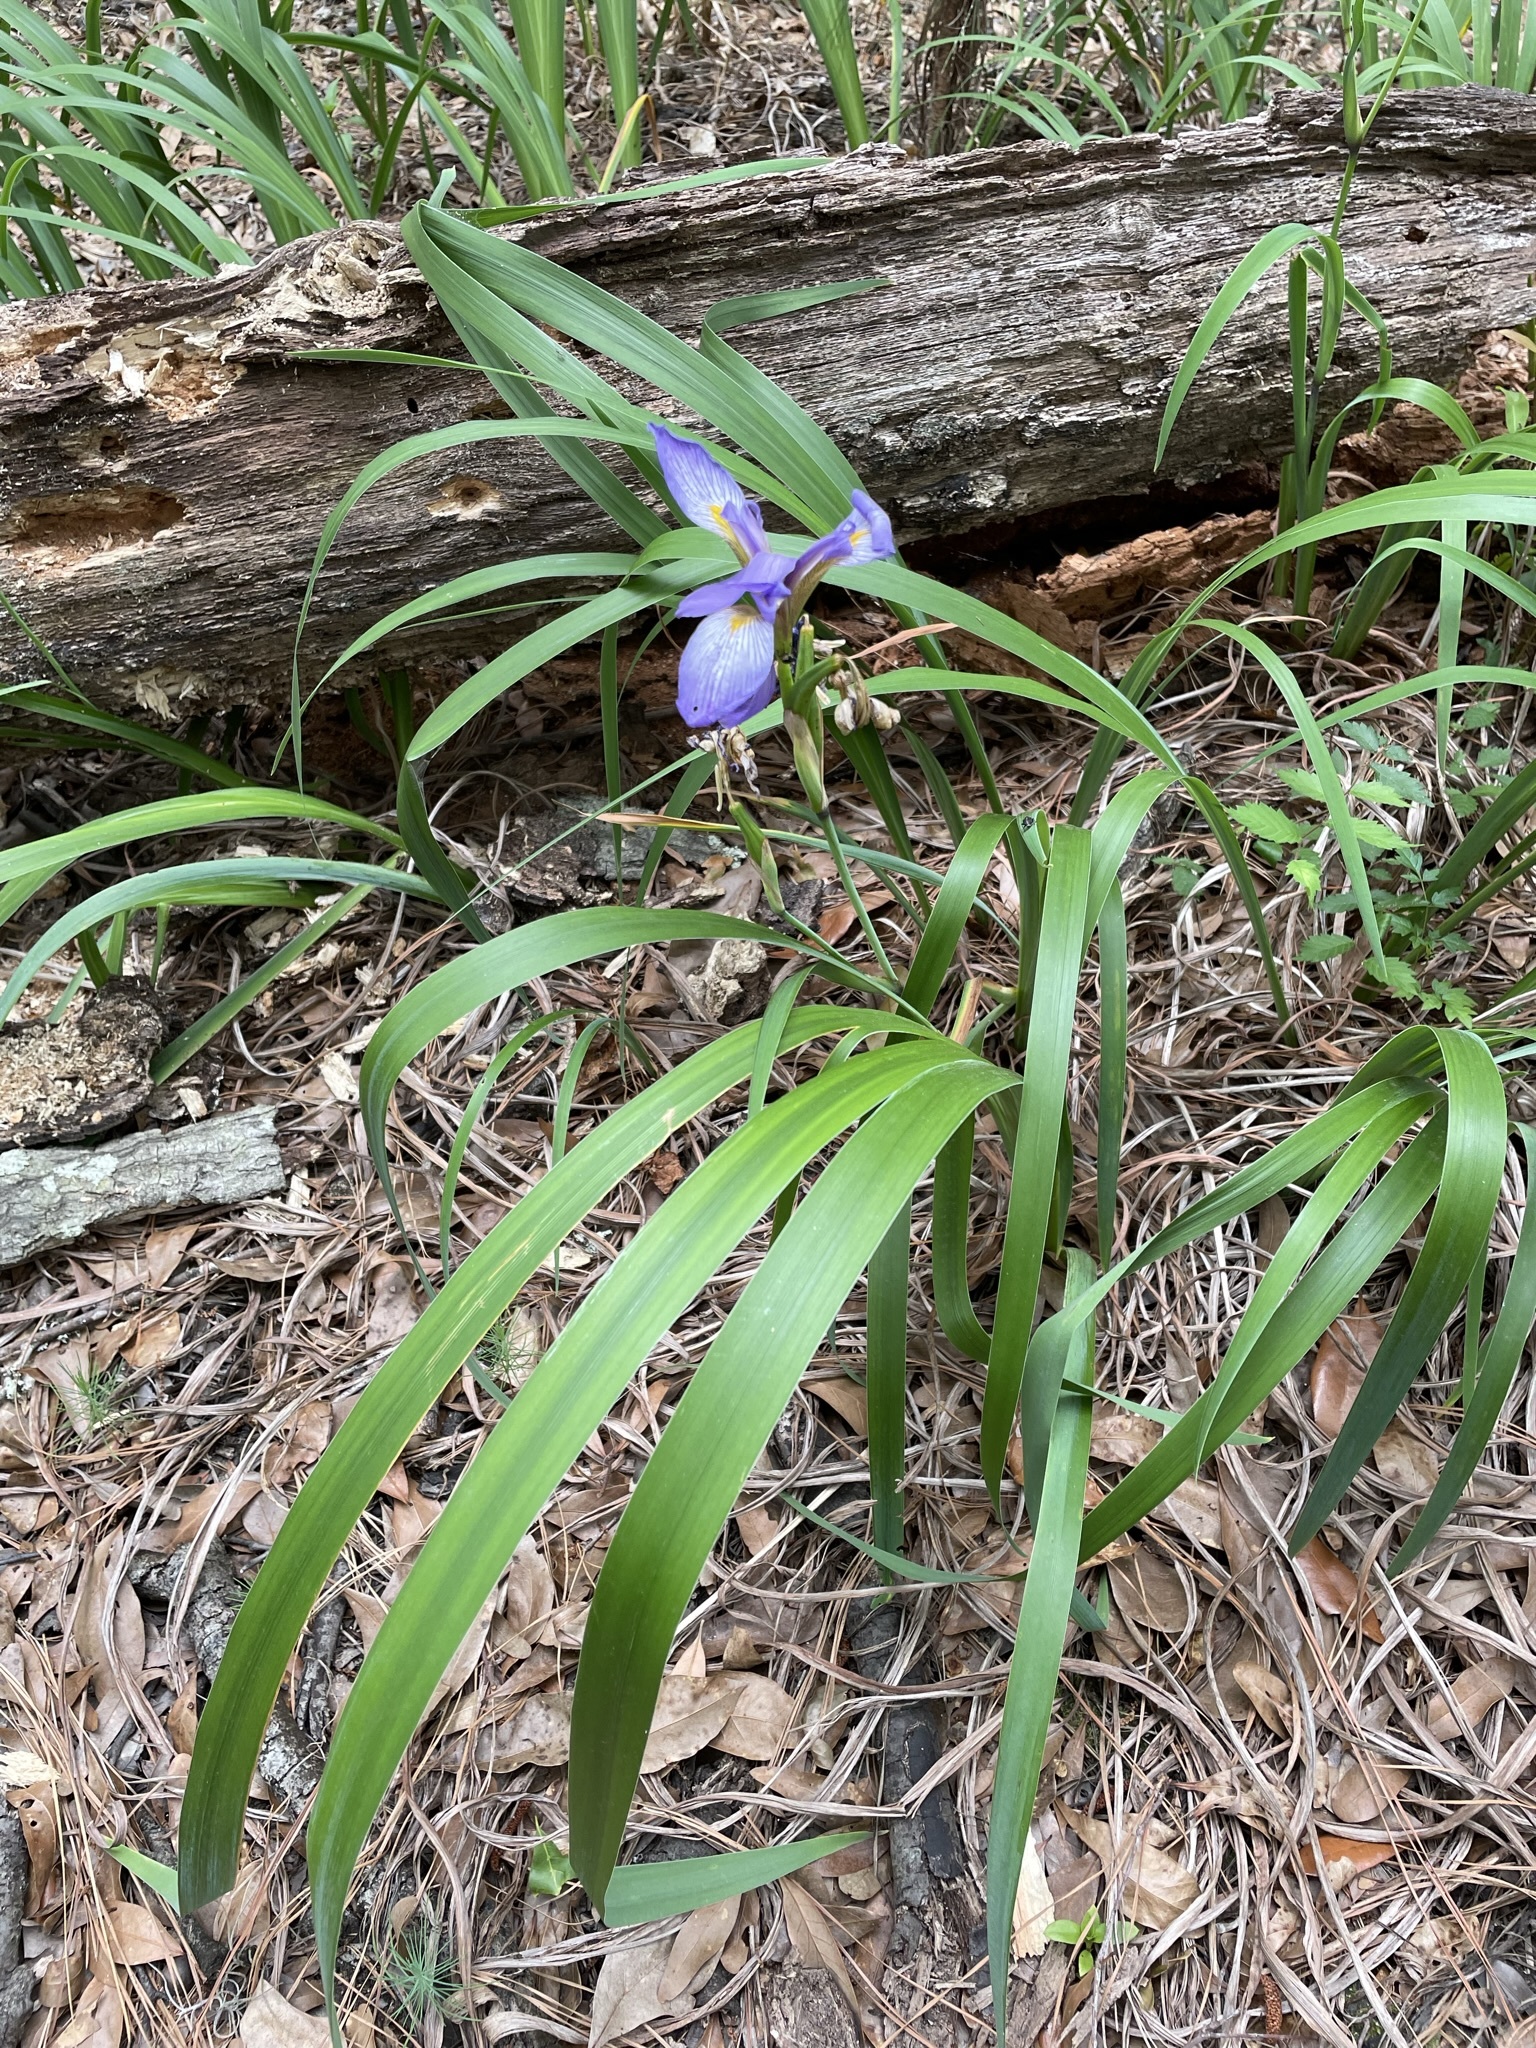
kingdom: Plantae
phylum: Tracheophyta
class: Liliopsida
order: Asparagales
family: Iridaceae
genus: Iris
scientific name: Iris virginica
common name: Southern blue flag
